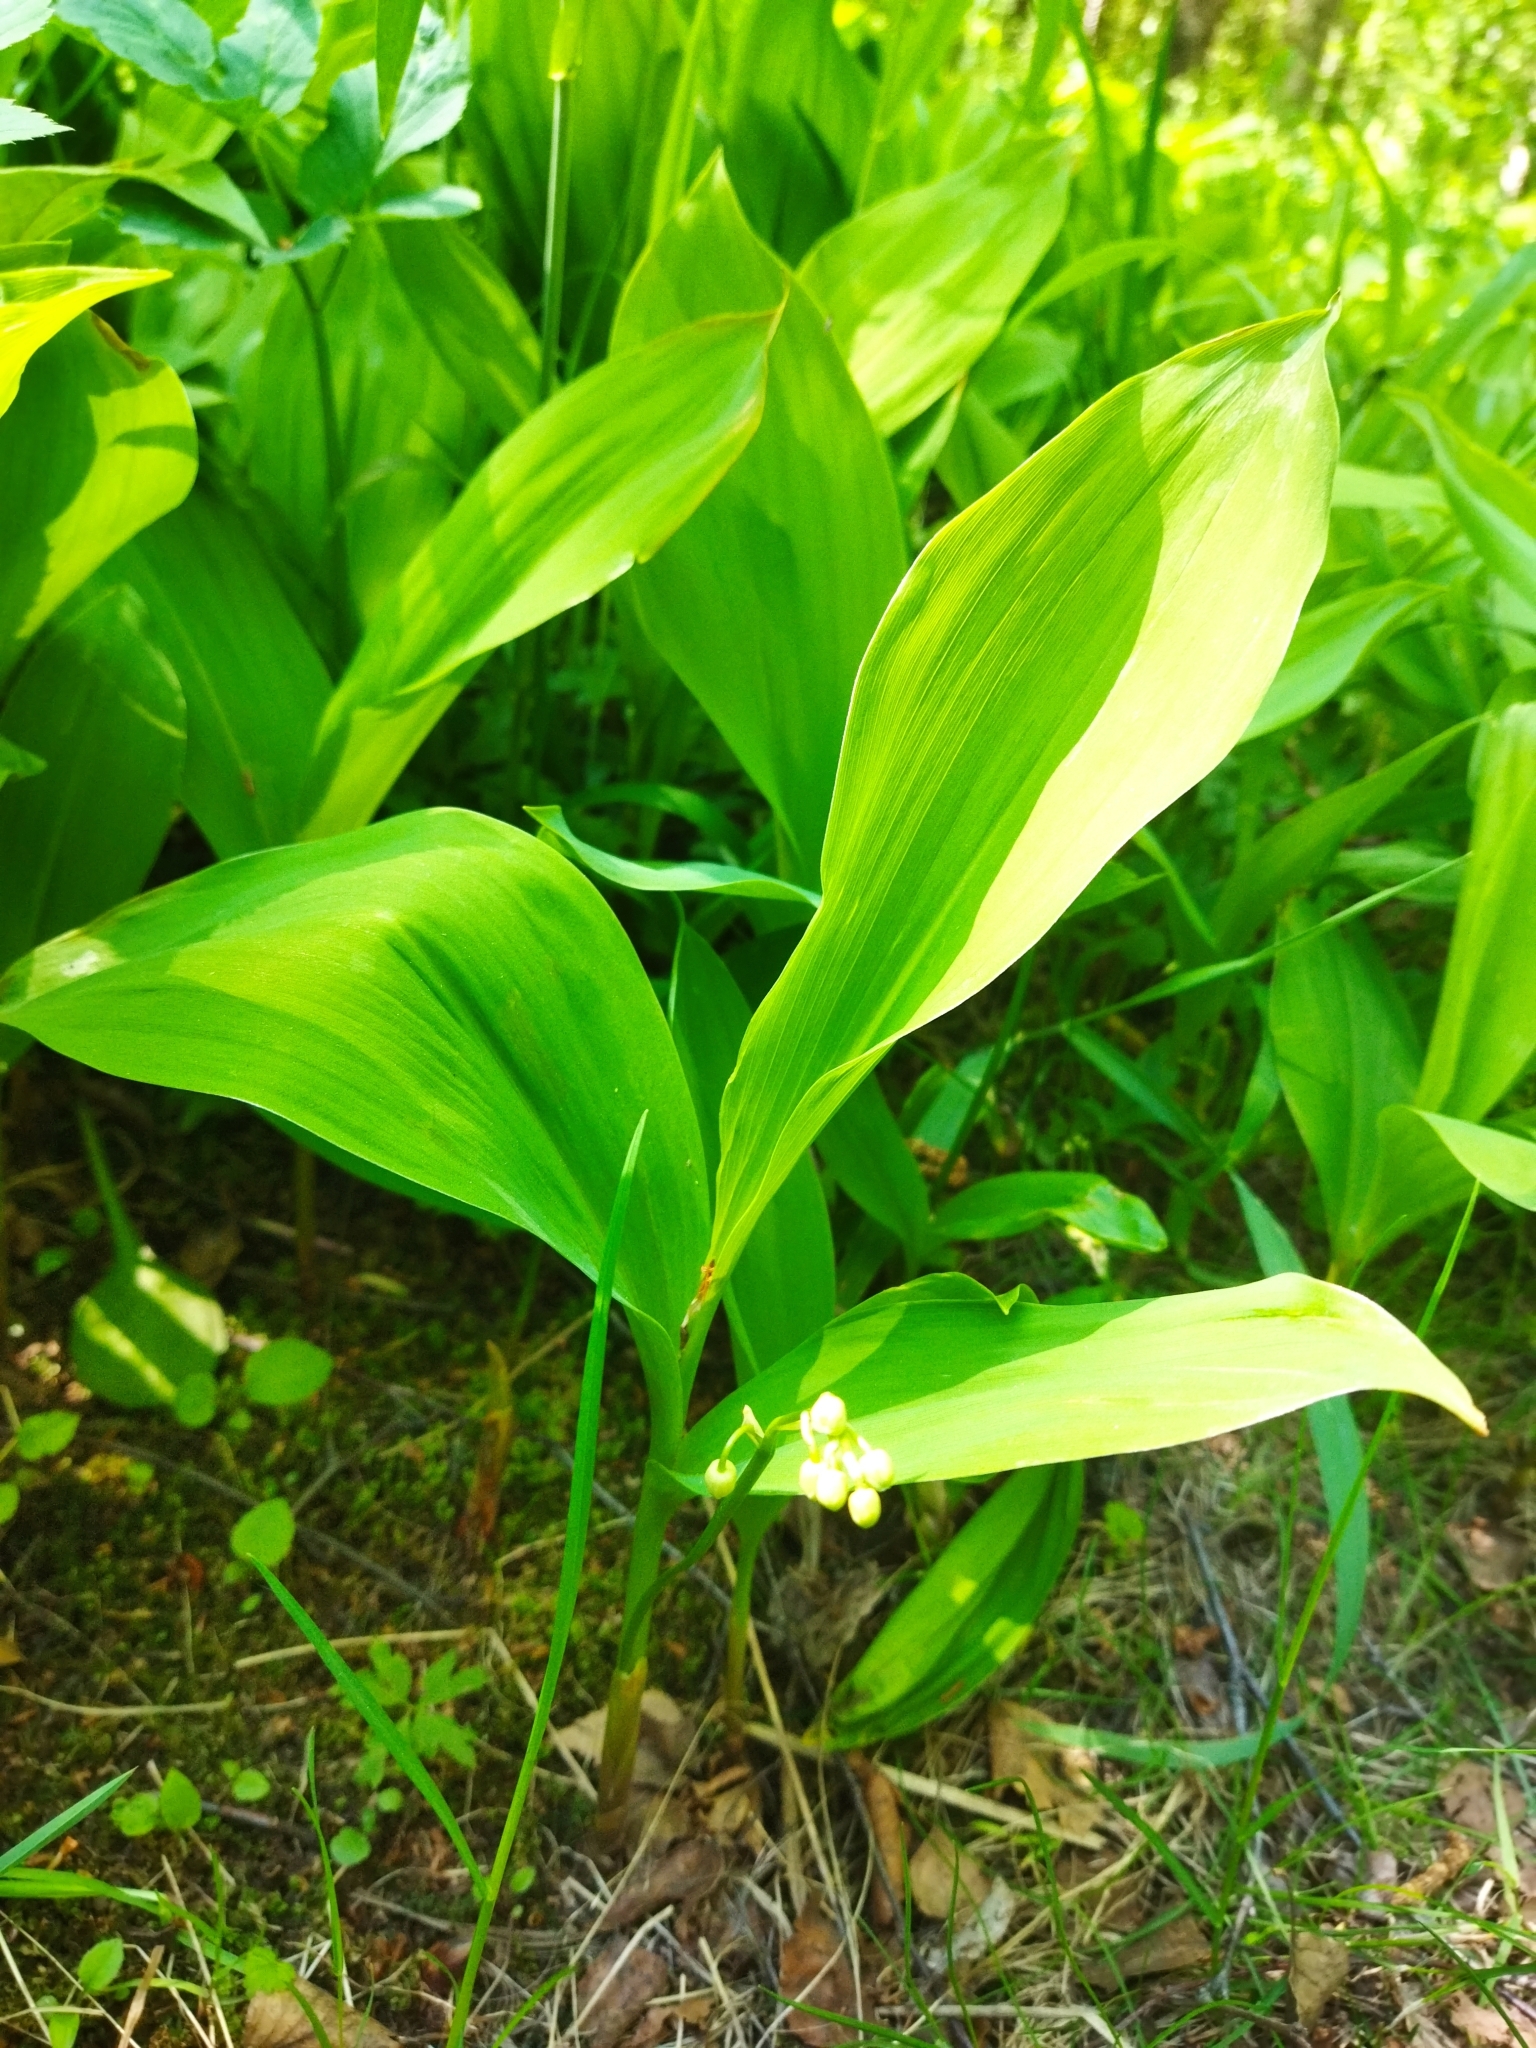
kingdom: Plantae
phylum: Tracheophyta
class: Liliopsida
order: Asparagales
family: Asparagaceae
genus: Convallaria
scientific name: Convallaria majalis
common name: Lily-of-the-valley
